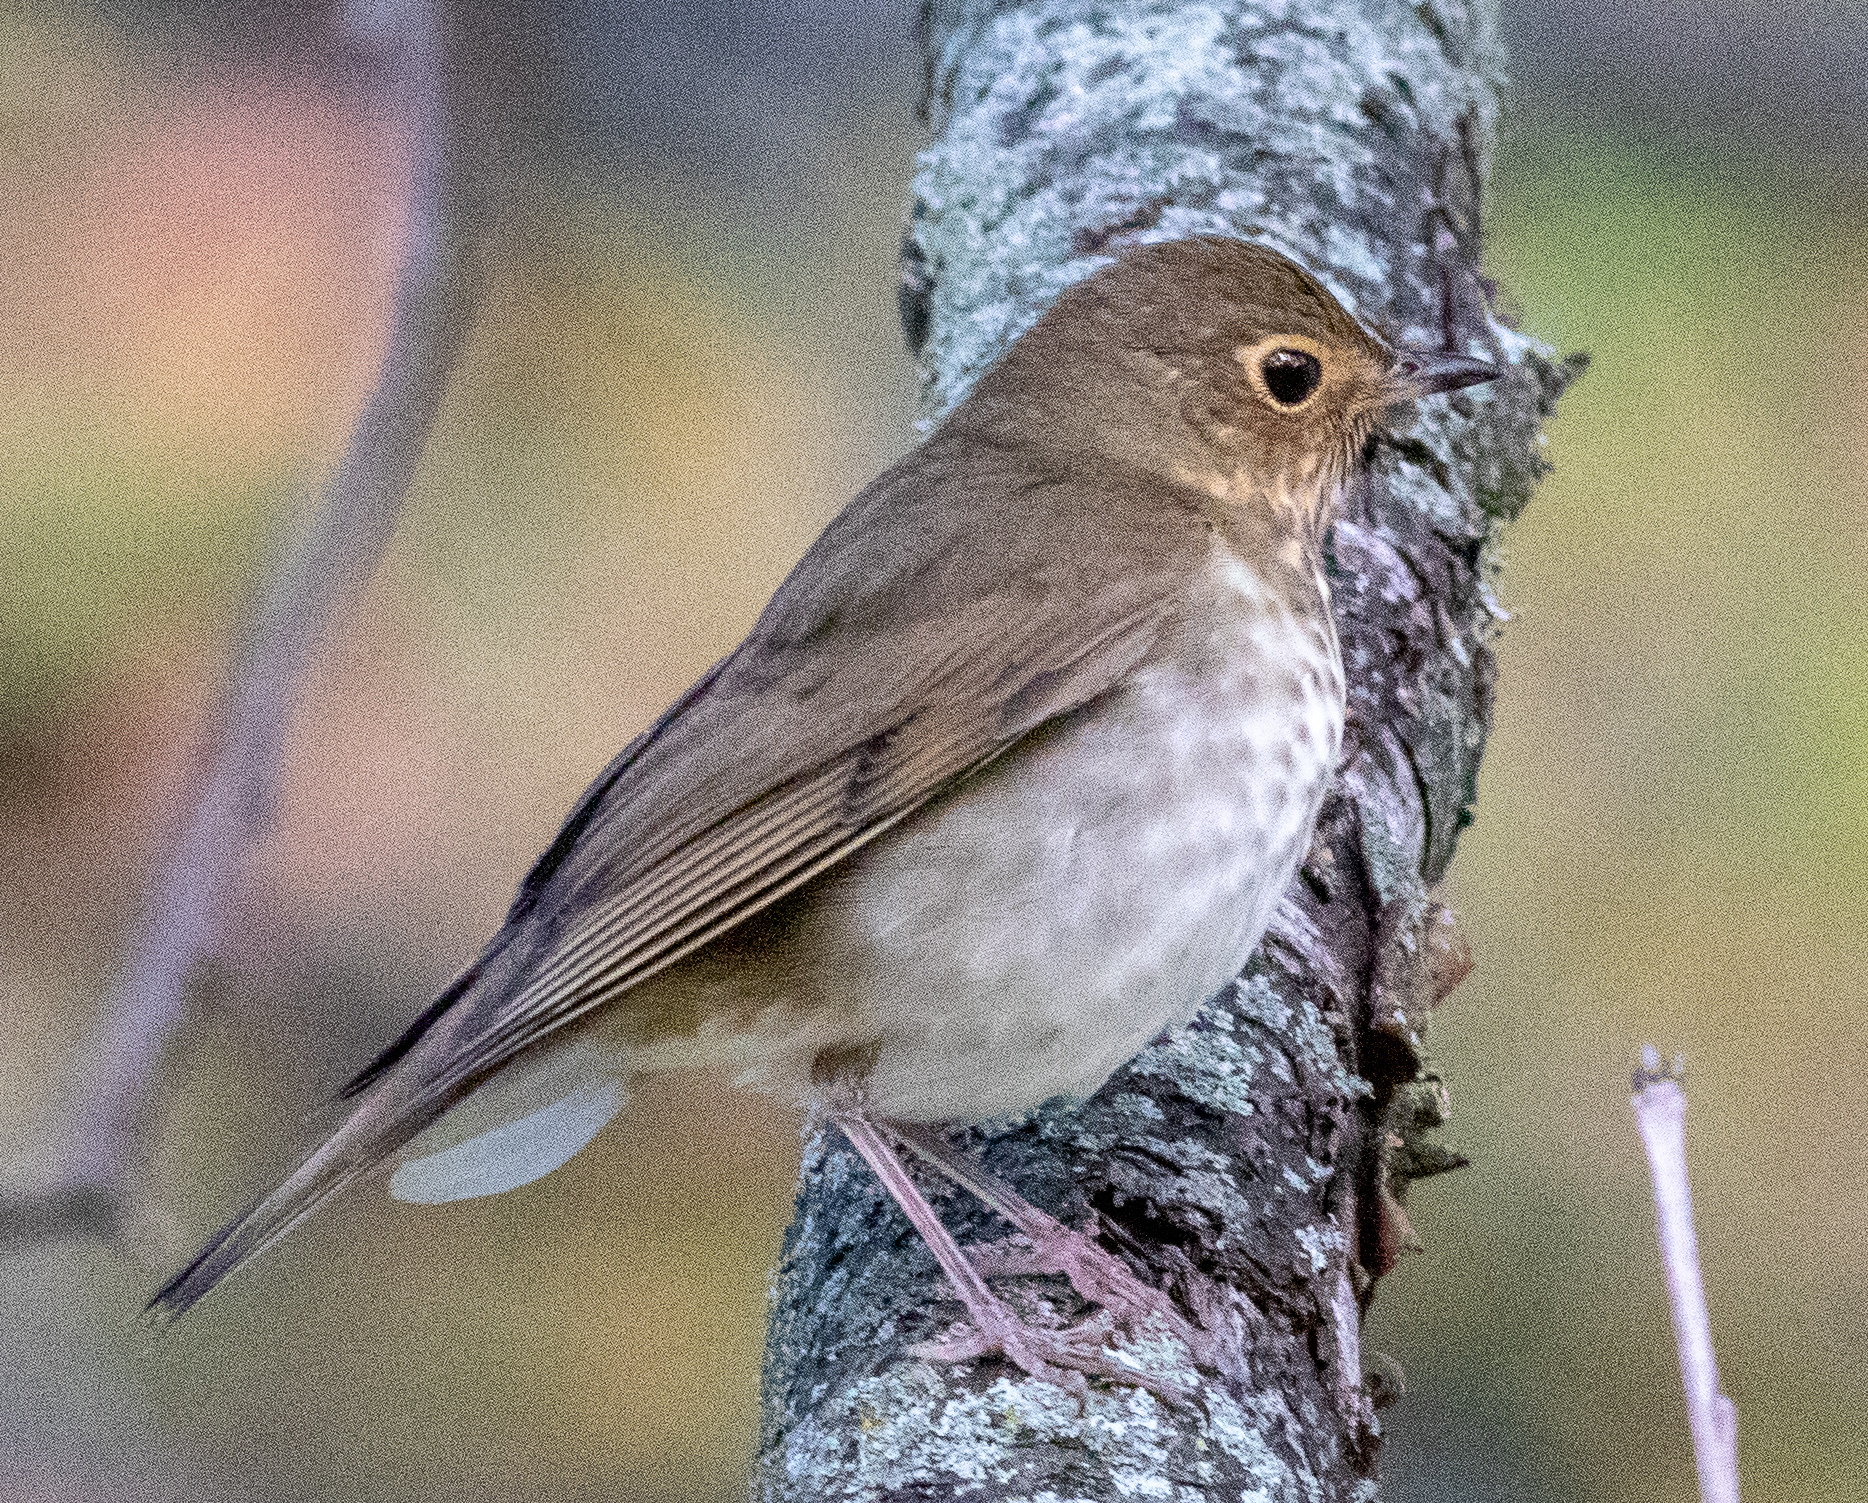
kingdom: Animalia
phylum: Chordata
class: Aves
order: Passeriformes
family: Turdidae
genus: Catharus
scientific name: Catharus ustulatus
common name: Swainson's thrush
